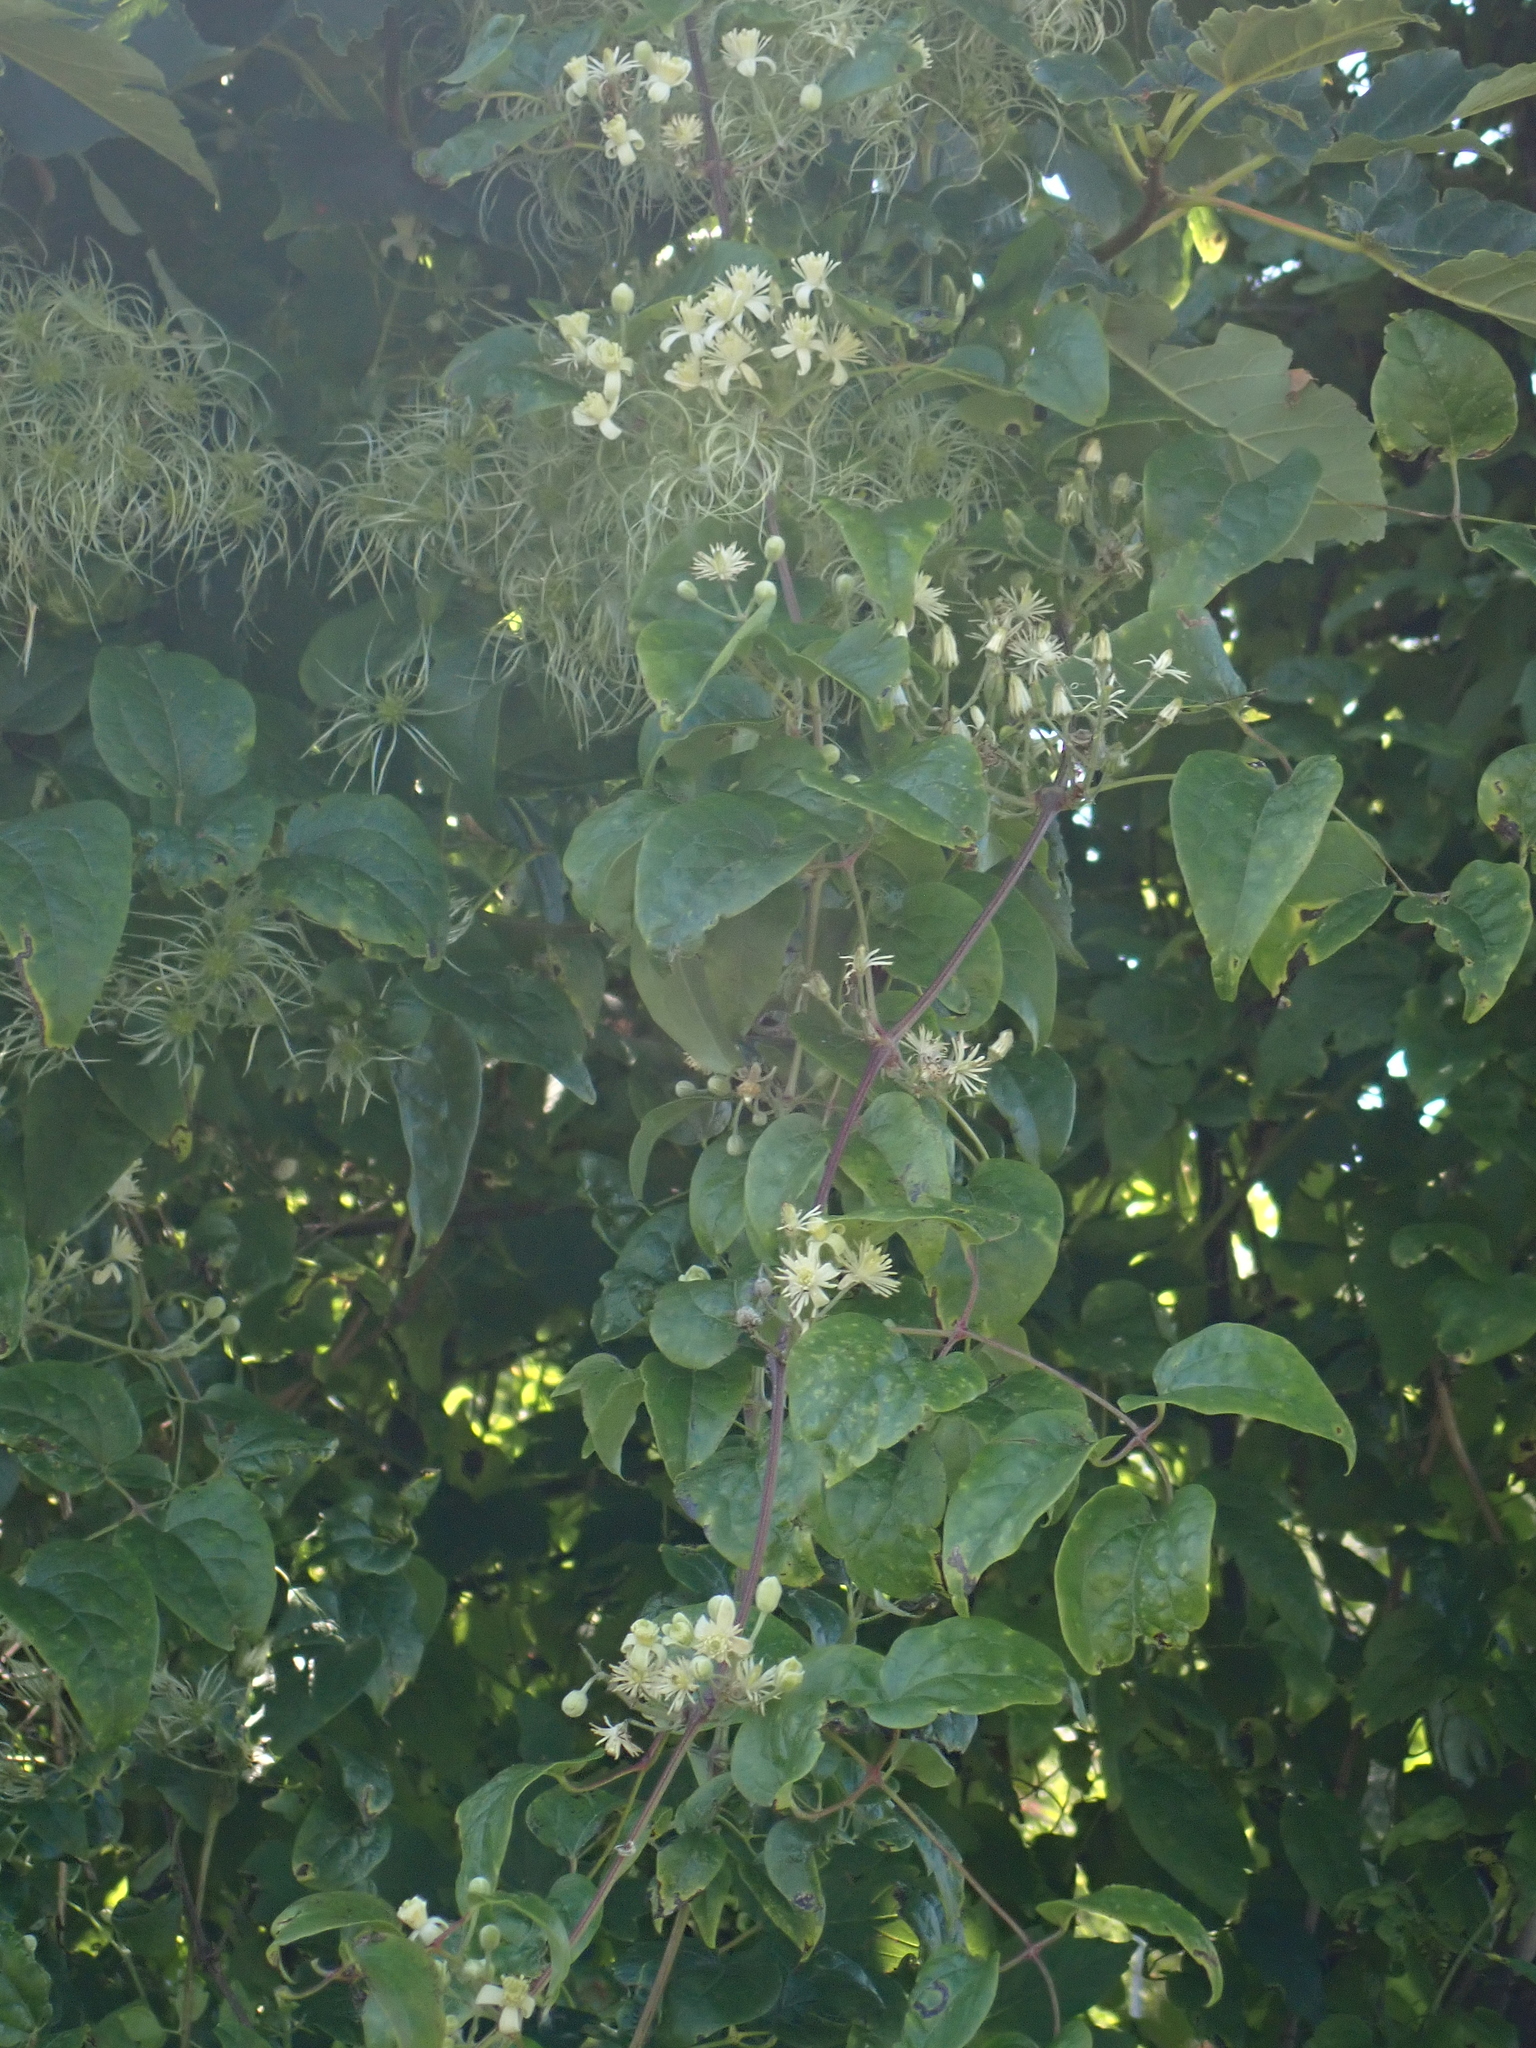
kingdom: Plantae
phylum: Tracheophyta
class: Magnoliopsida
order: Ranunculales
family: Ranunculaceae
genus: Clematis
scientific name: Clematis vitalba
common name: Evergreen clematis
